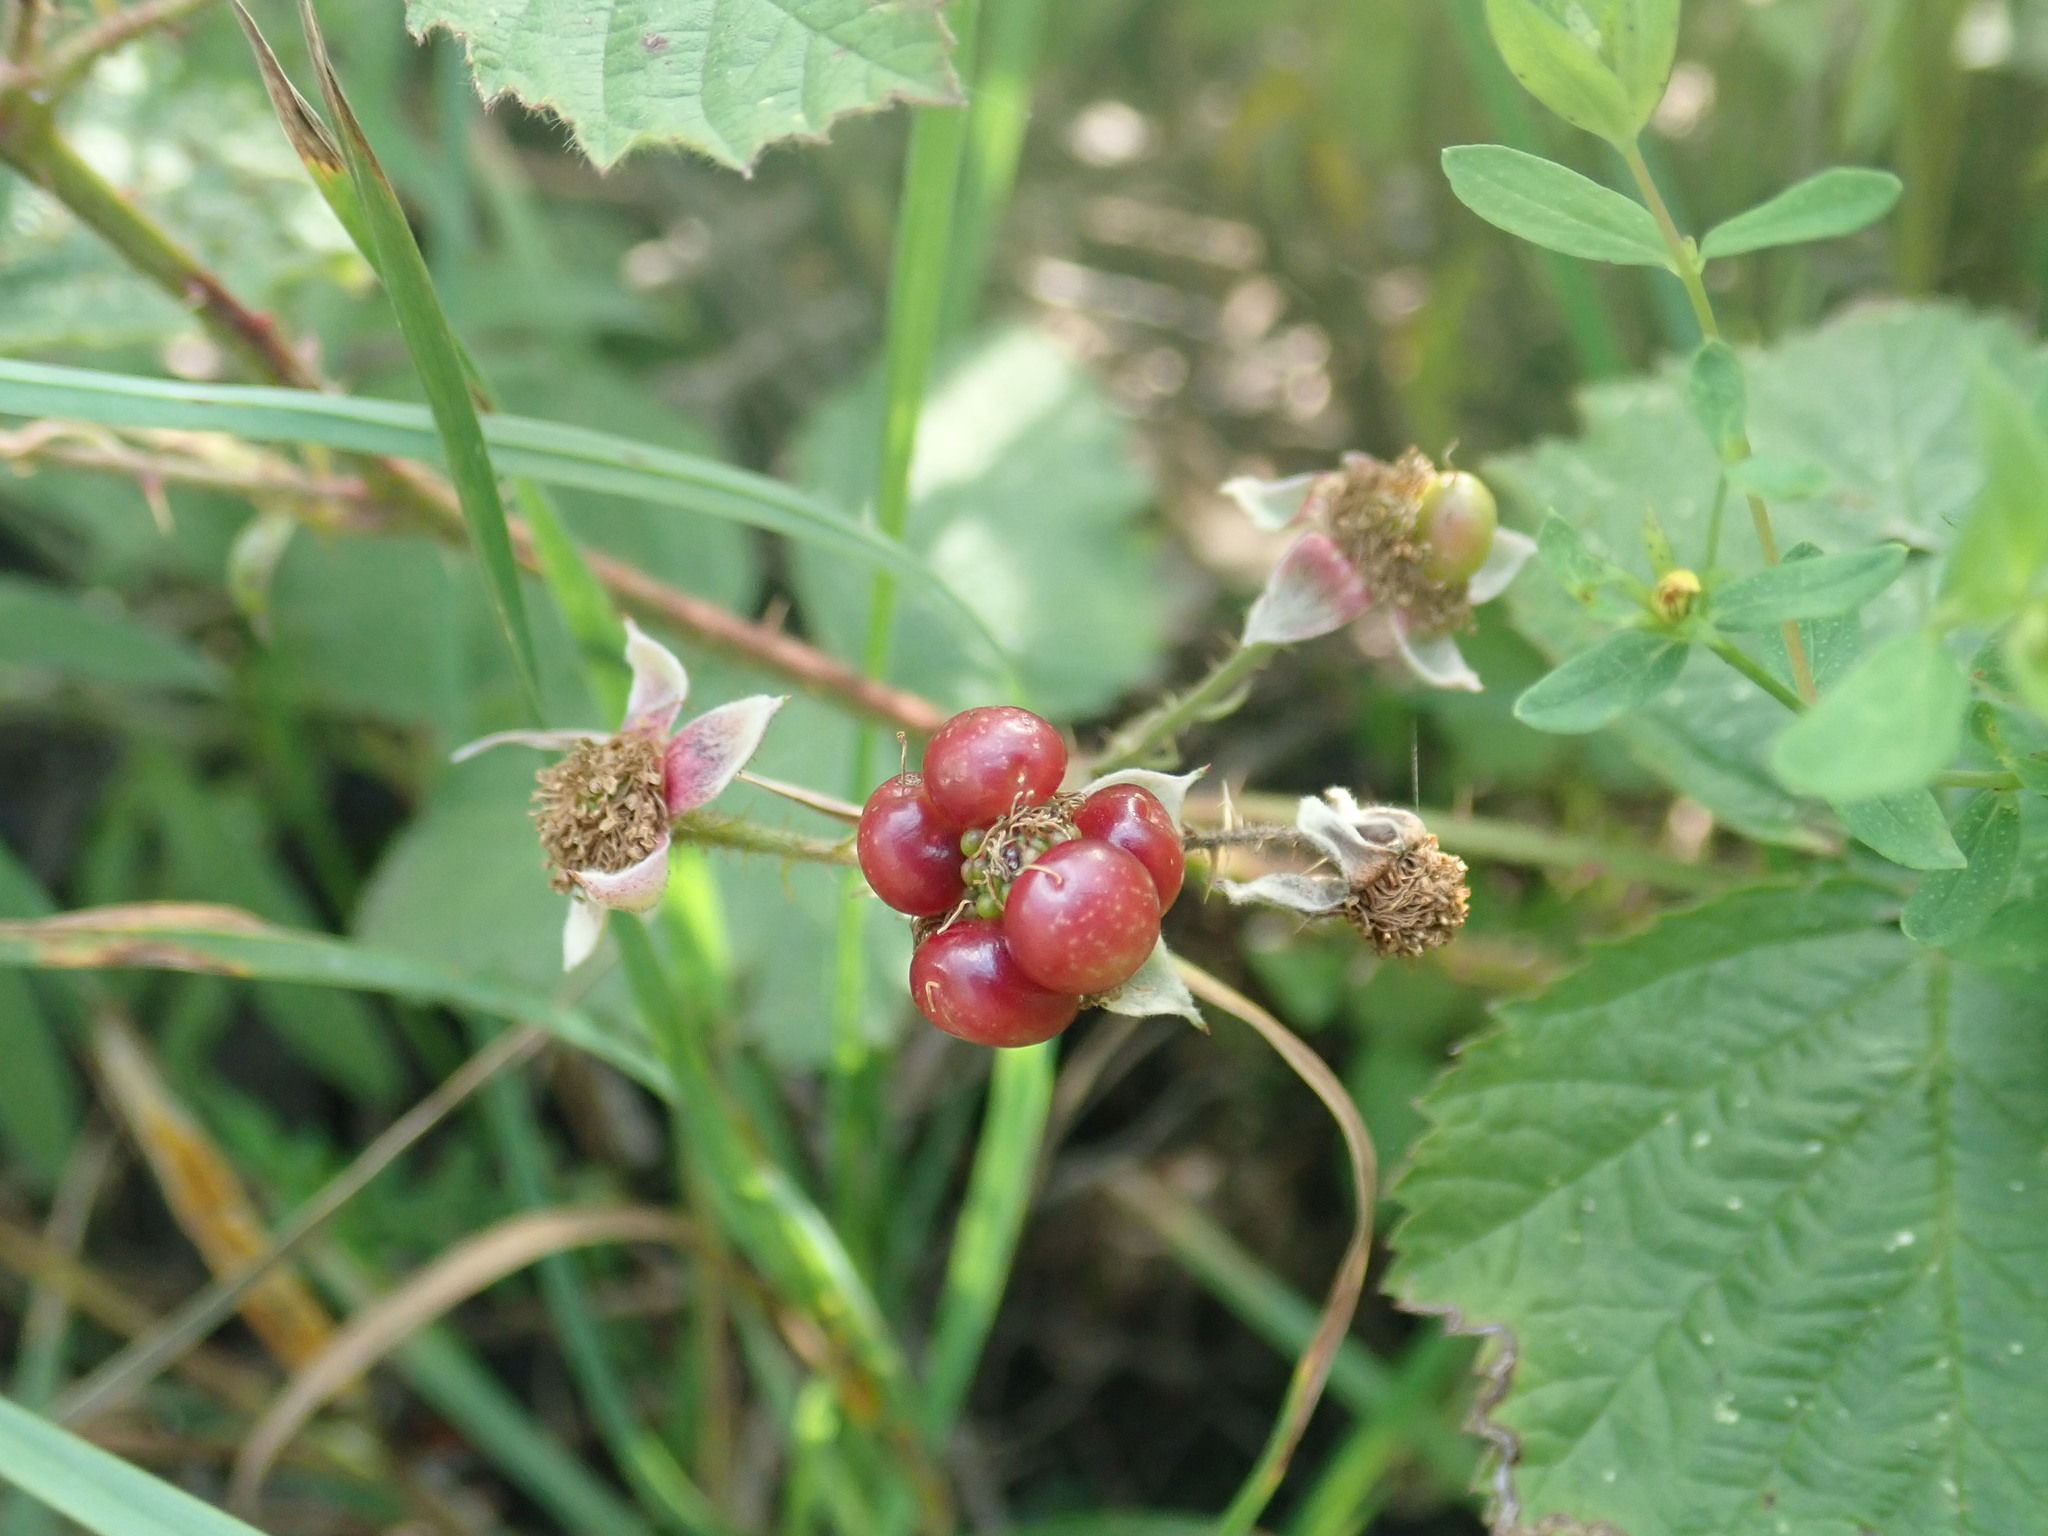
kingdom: Plantae
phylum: Tracheophyta
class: Magnoliopsida
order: Rosales
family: Rosaceae
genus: Rubus
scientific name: Rubus
